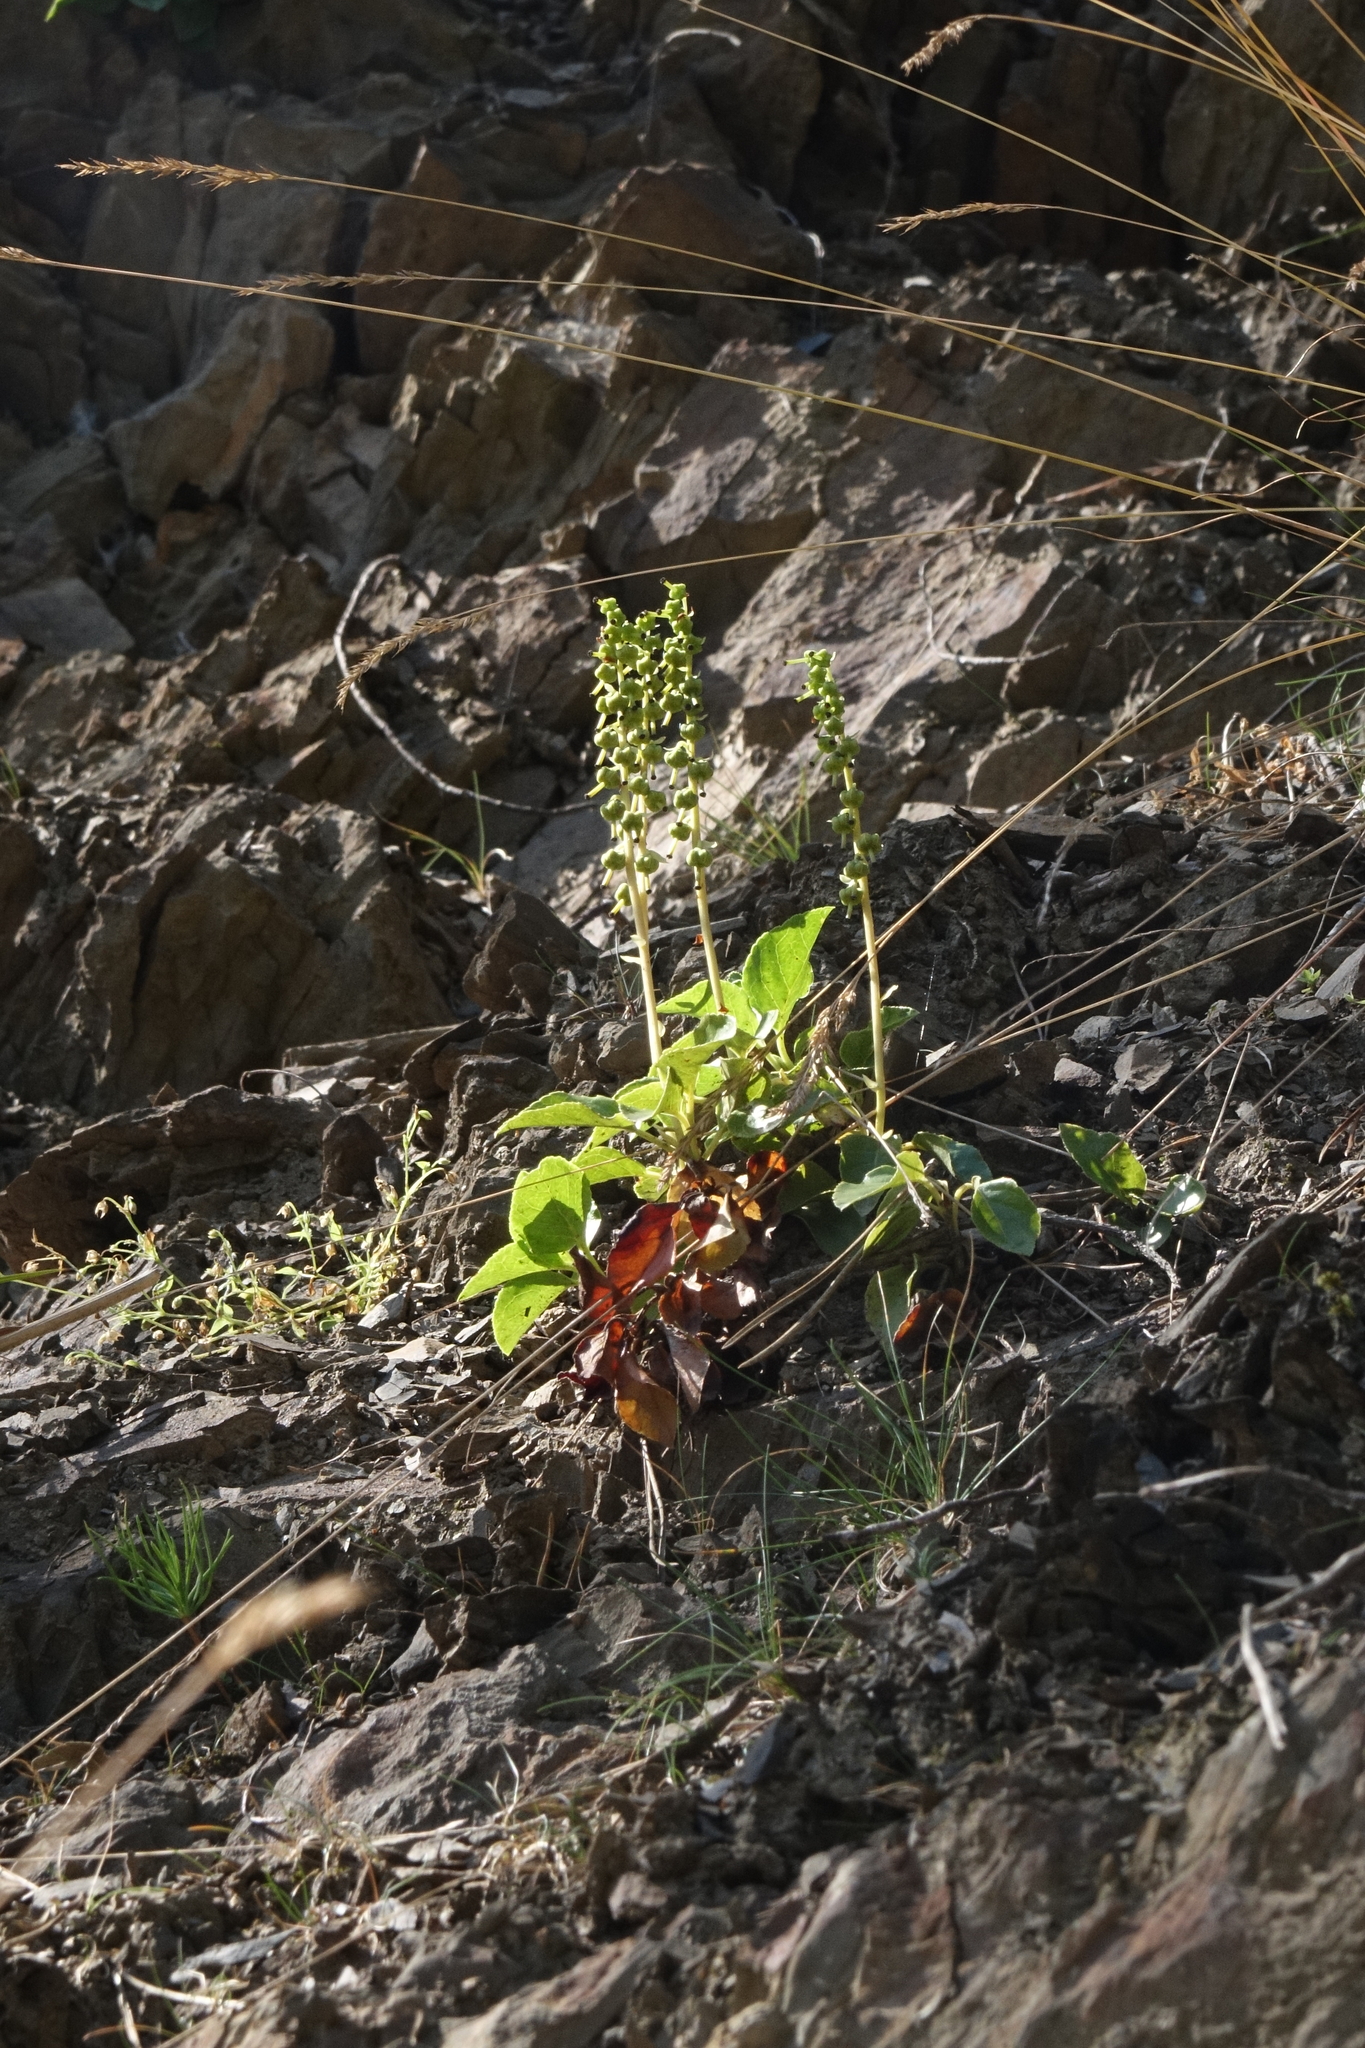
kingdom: Plantae
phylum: Tracheophyta
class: Magnoliopsida
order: Ericales
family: Ericaceae
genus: Orthilia
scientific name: Orthilia secunda
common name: One-sided orthilia
